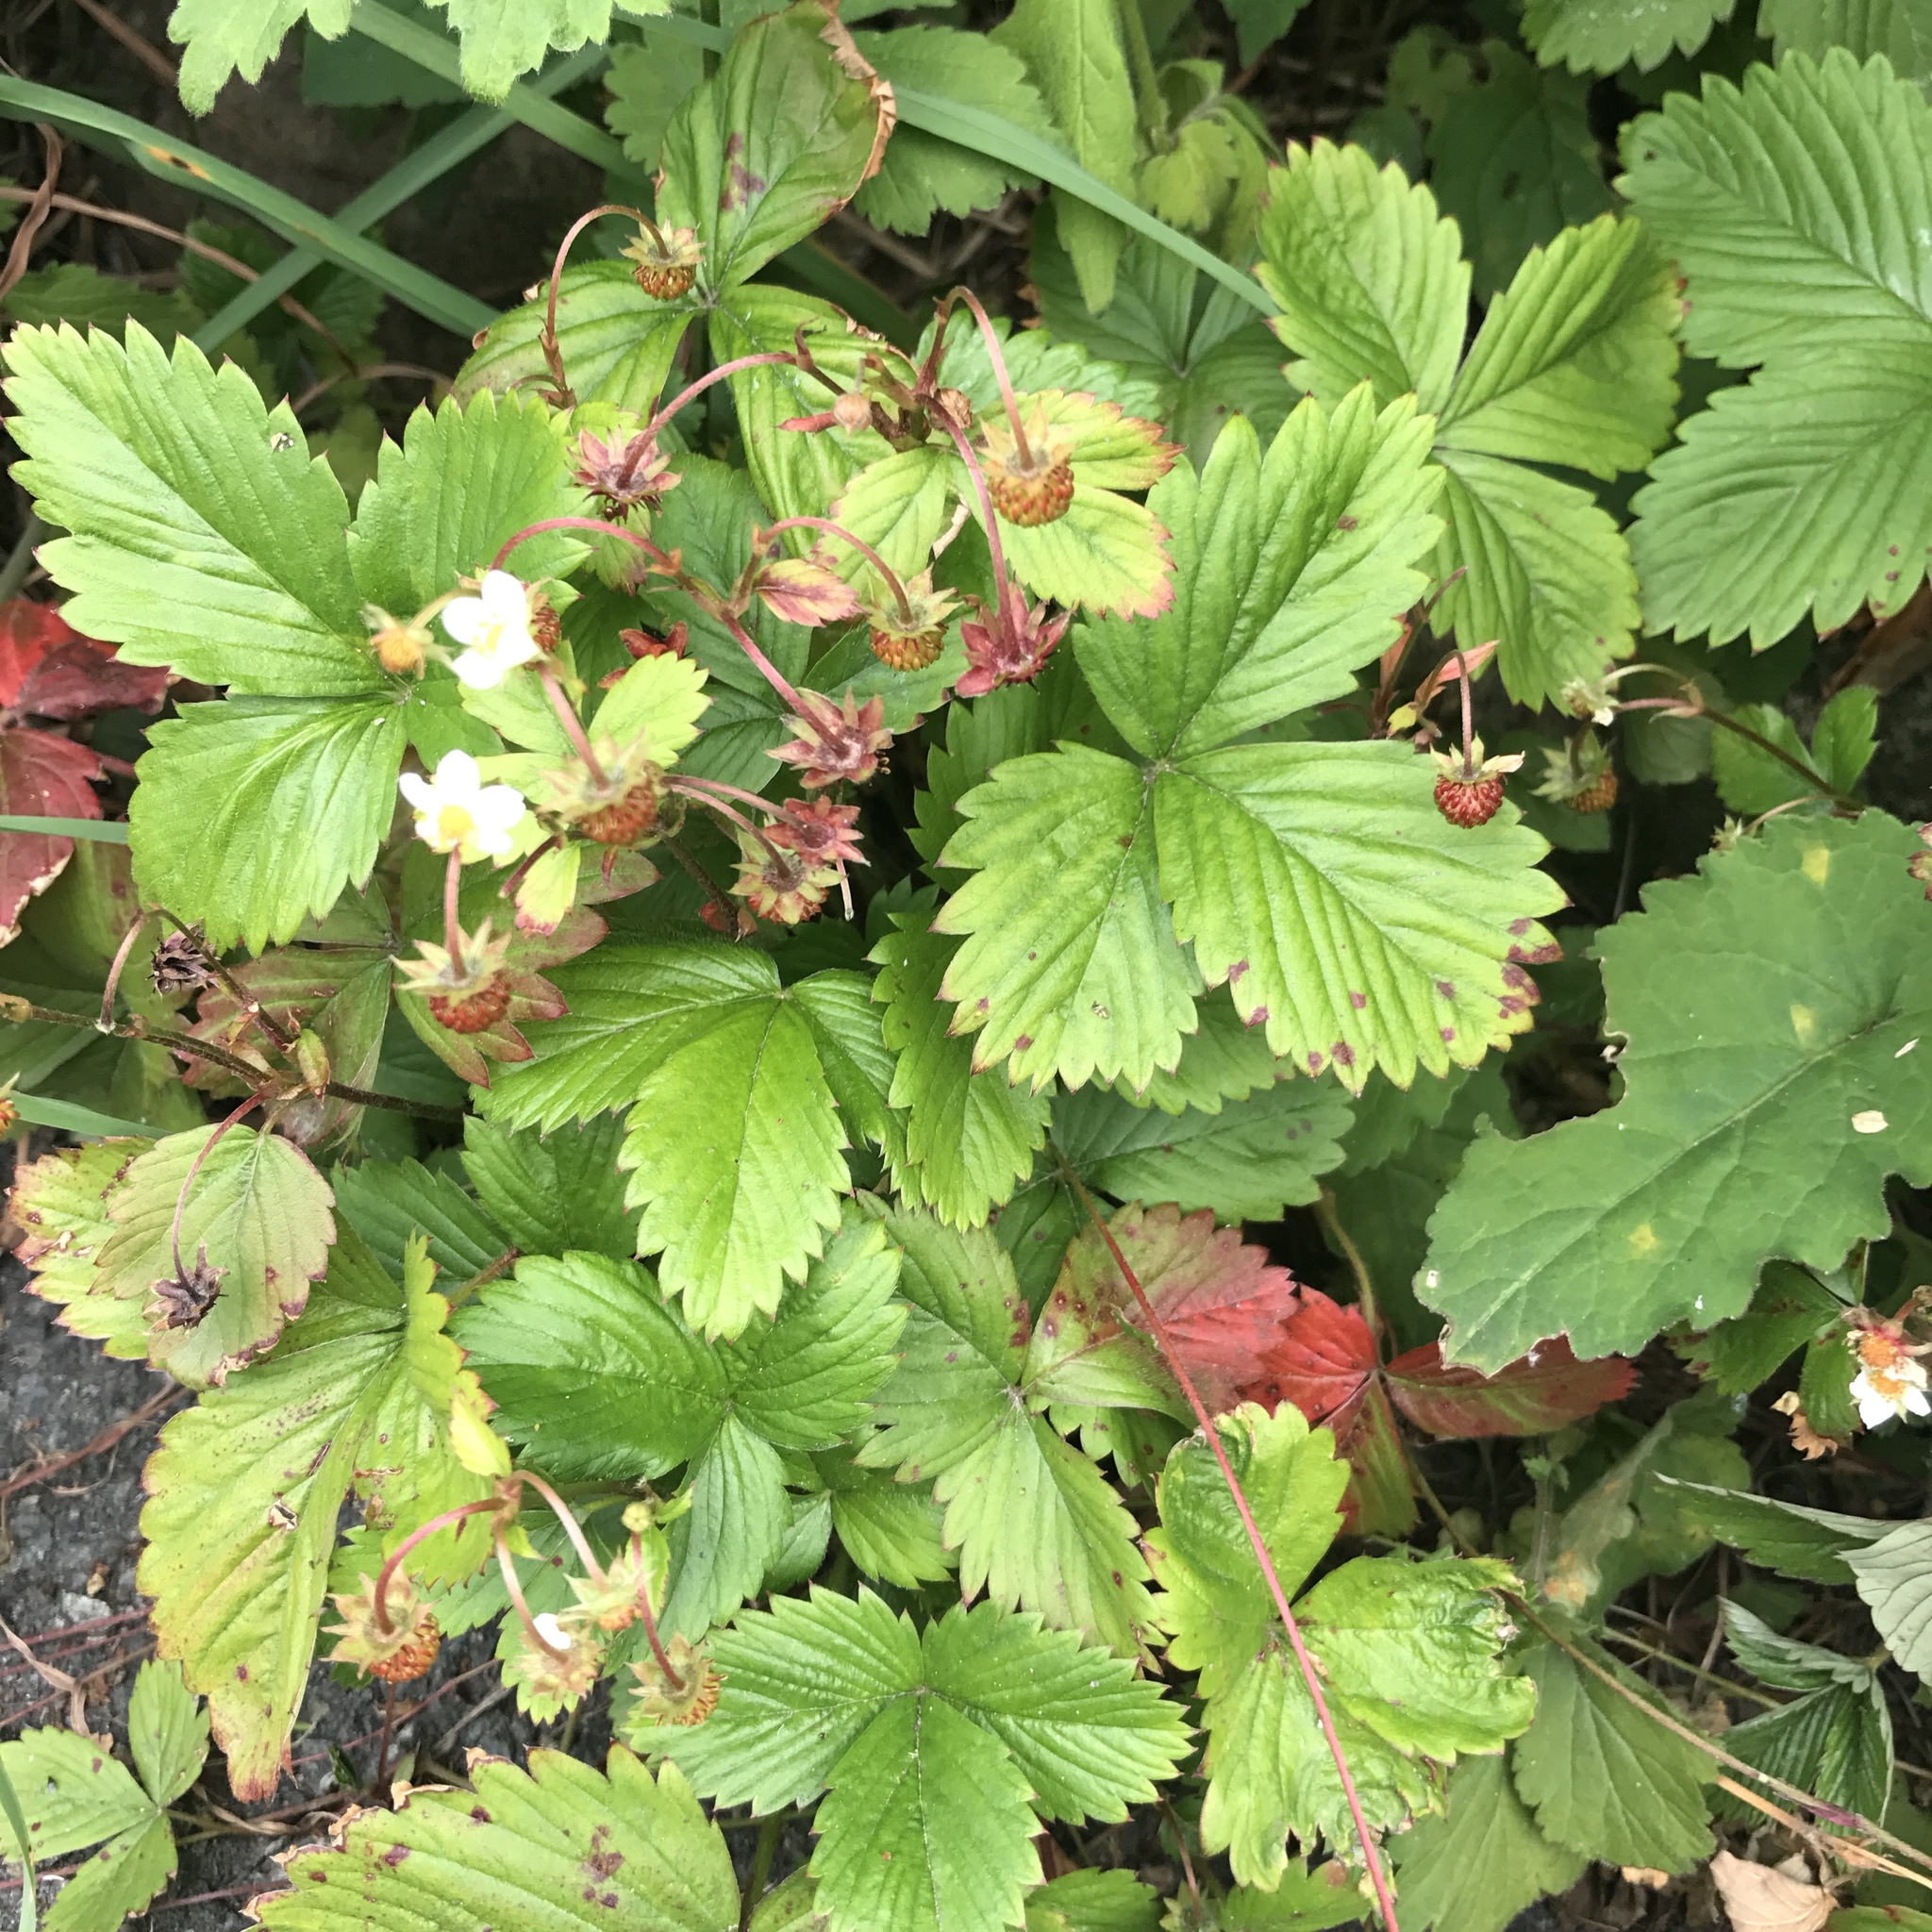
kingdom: Plantae
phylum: Tracheophyta
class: Magnoliopsida
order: Rosales
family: Rosaceae
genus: Fragaria
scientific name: Fragaria vesca
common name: Wild strawberry
